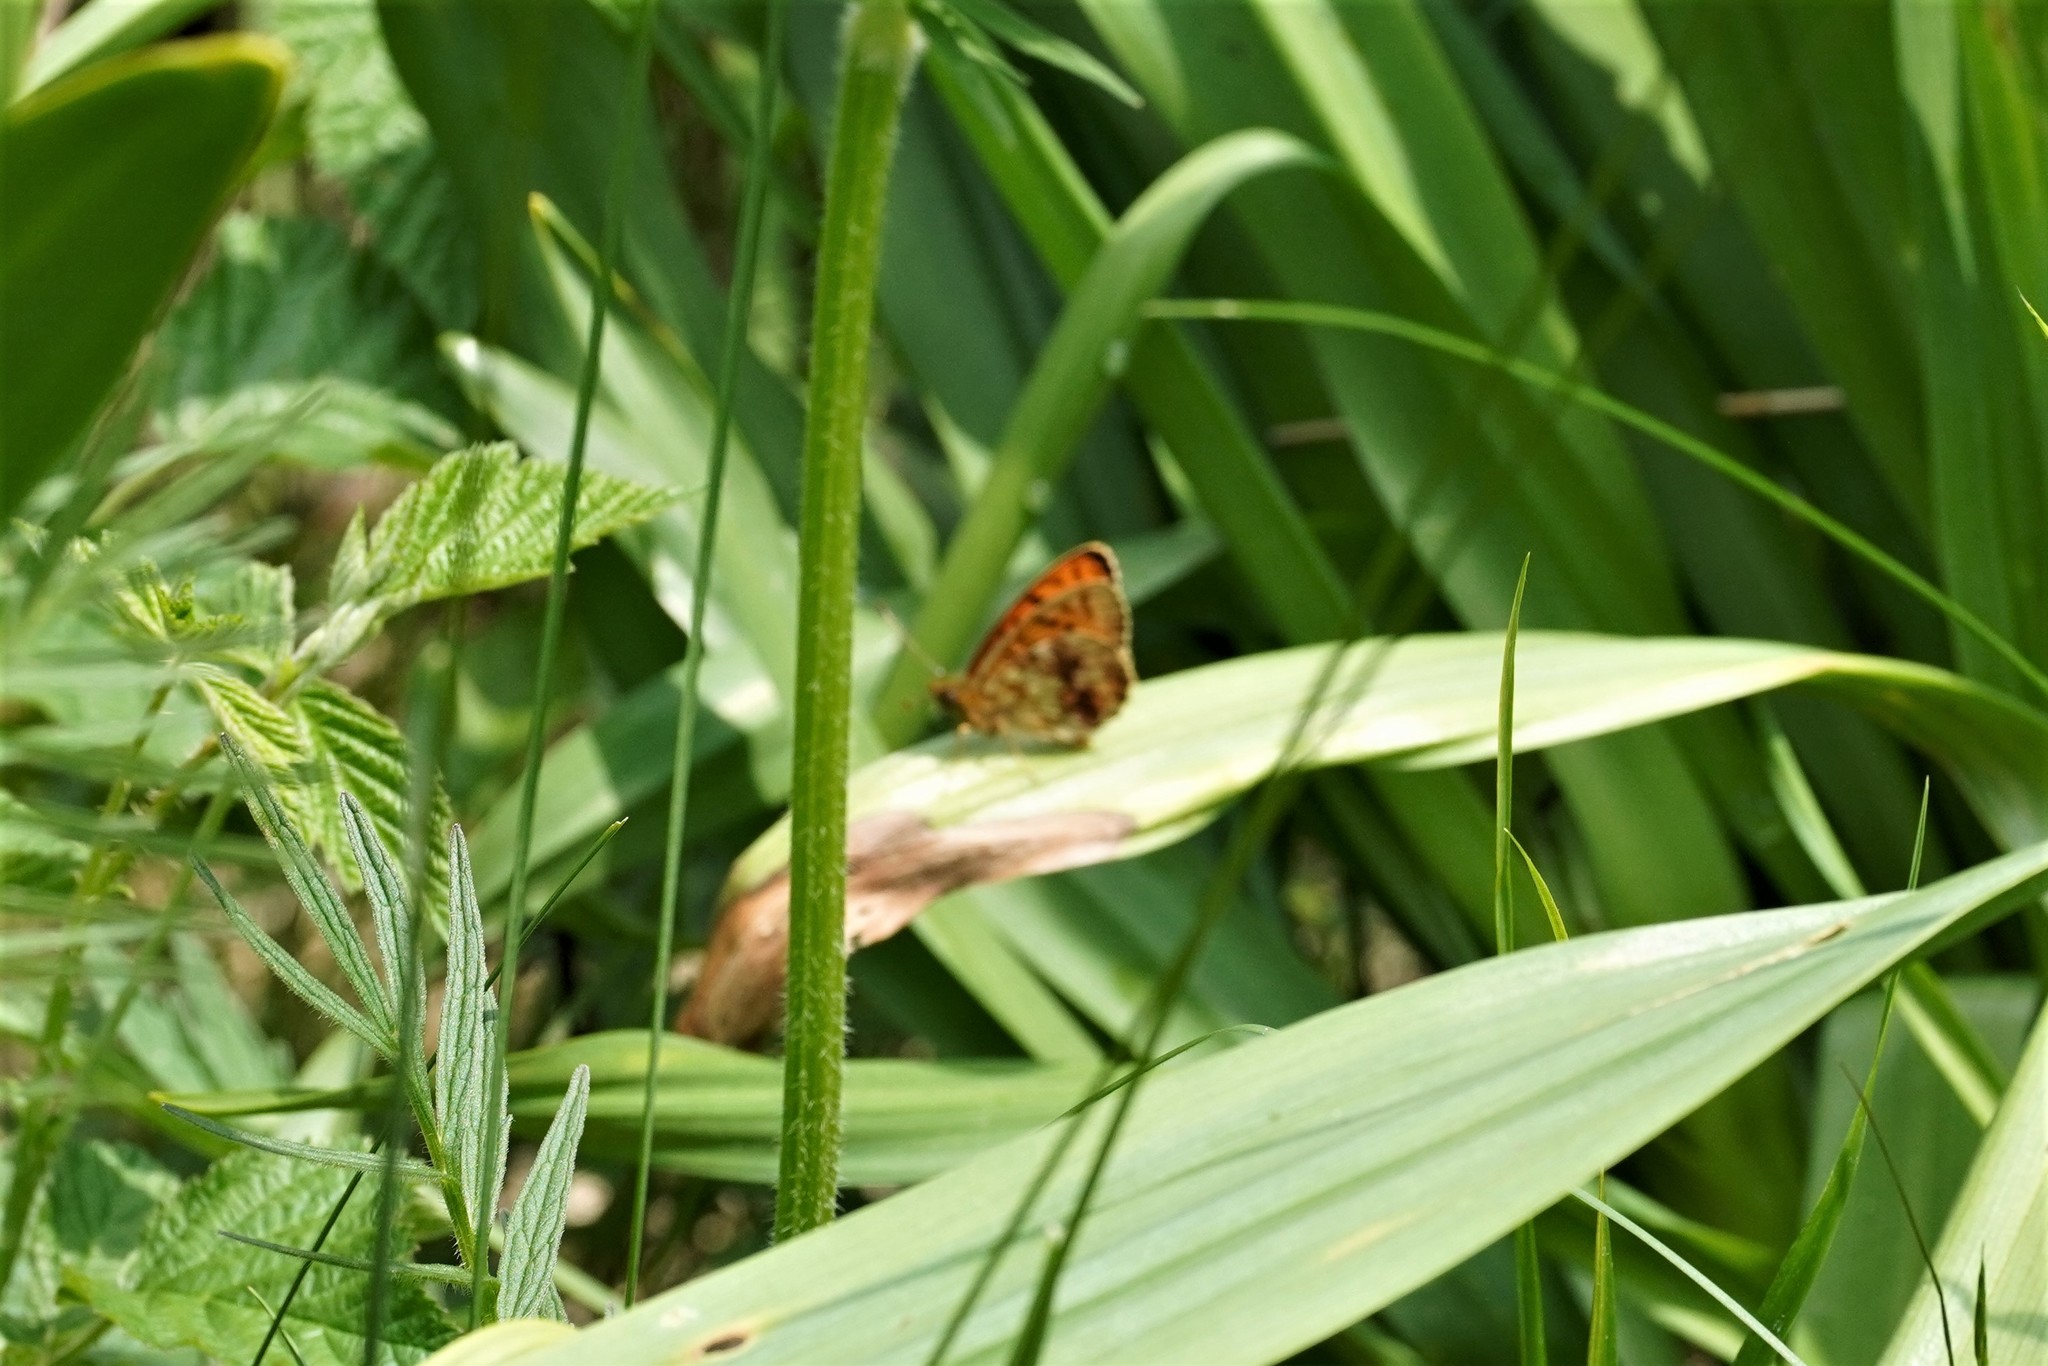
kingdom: Animalia
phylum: Arthropoda
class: Insecta
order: Lepidoptera
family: Nymphalidae
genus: Brenthis
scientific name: Brenthis ino
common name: Lesser marbled fritillary
